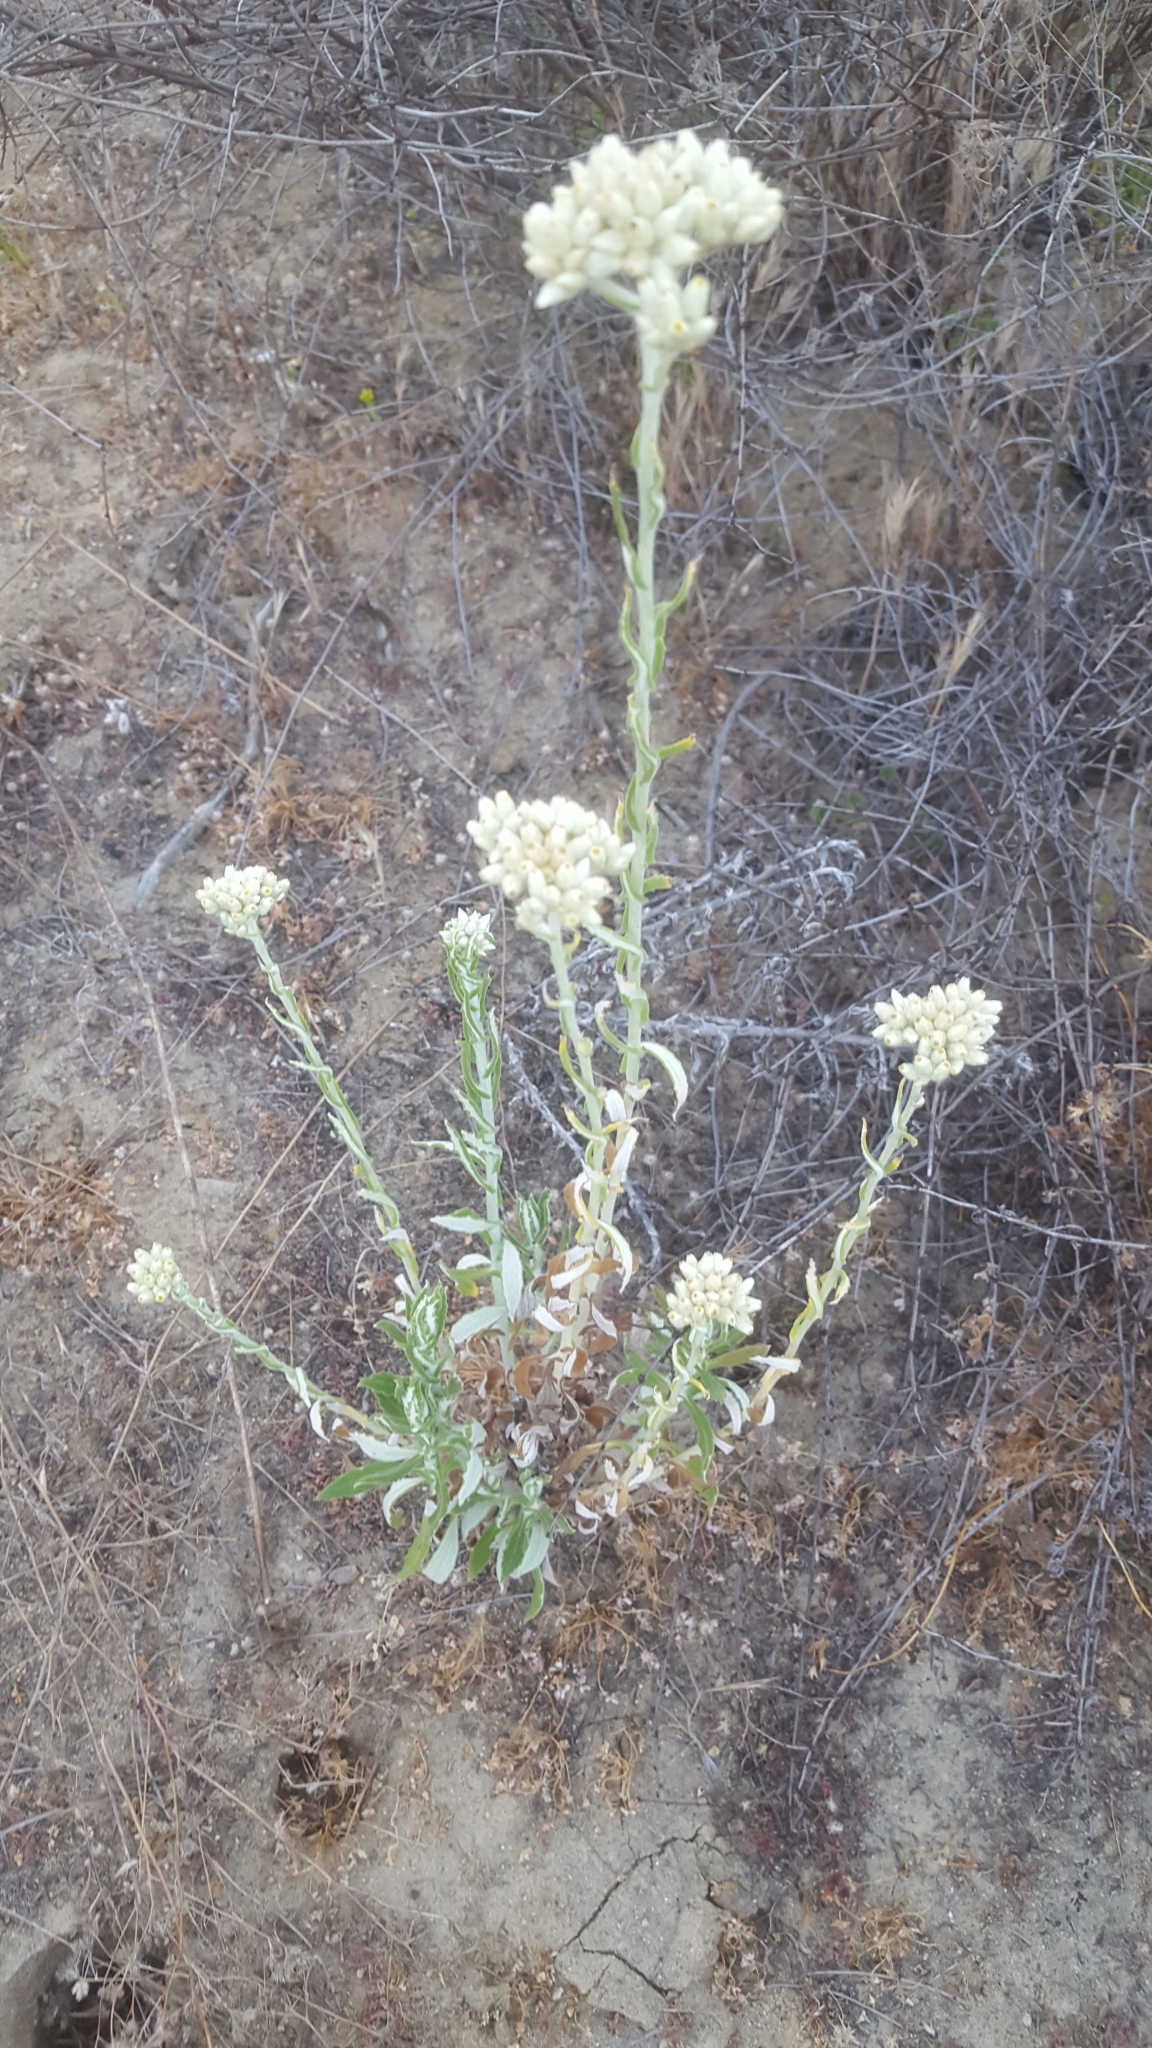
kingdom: Plantae
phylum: Tracheophyta
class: Magnoliopsida
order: Asterales
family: Asteraceae
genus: Pseudognaphalium
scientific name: Pseudognaphalium biolettii
